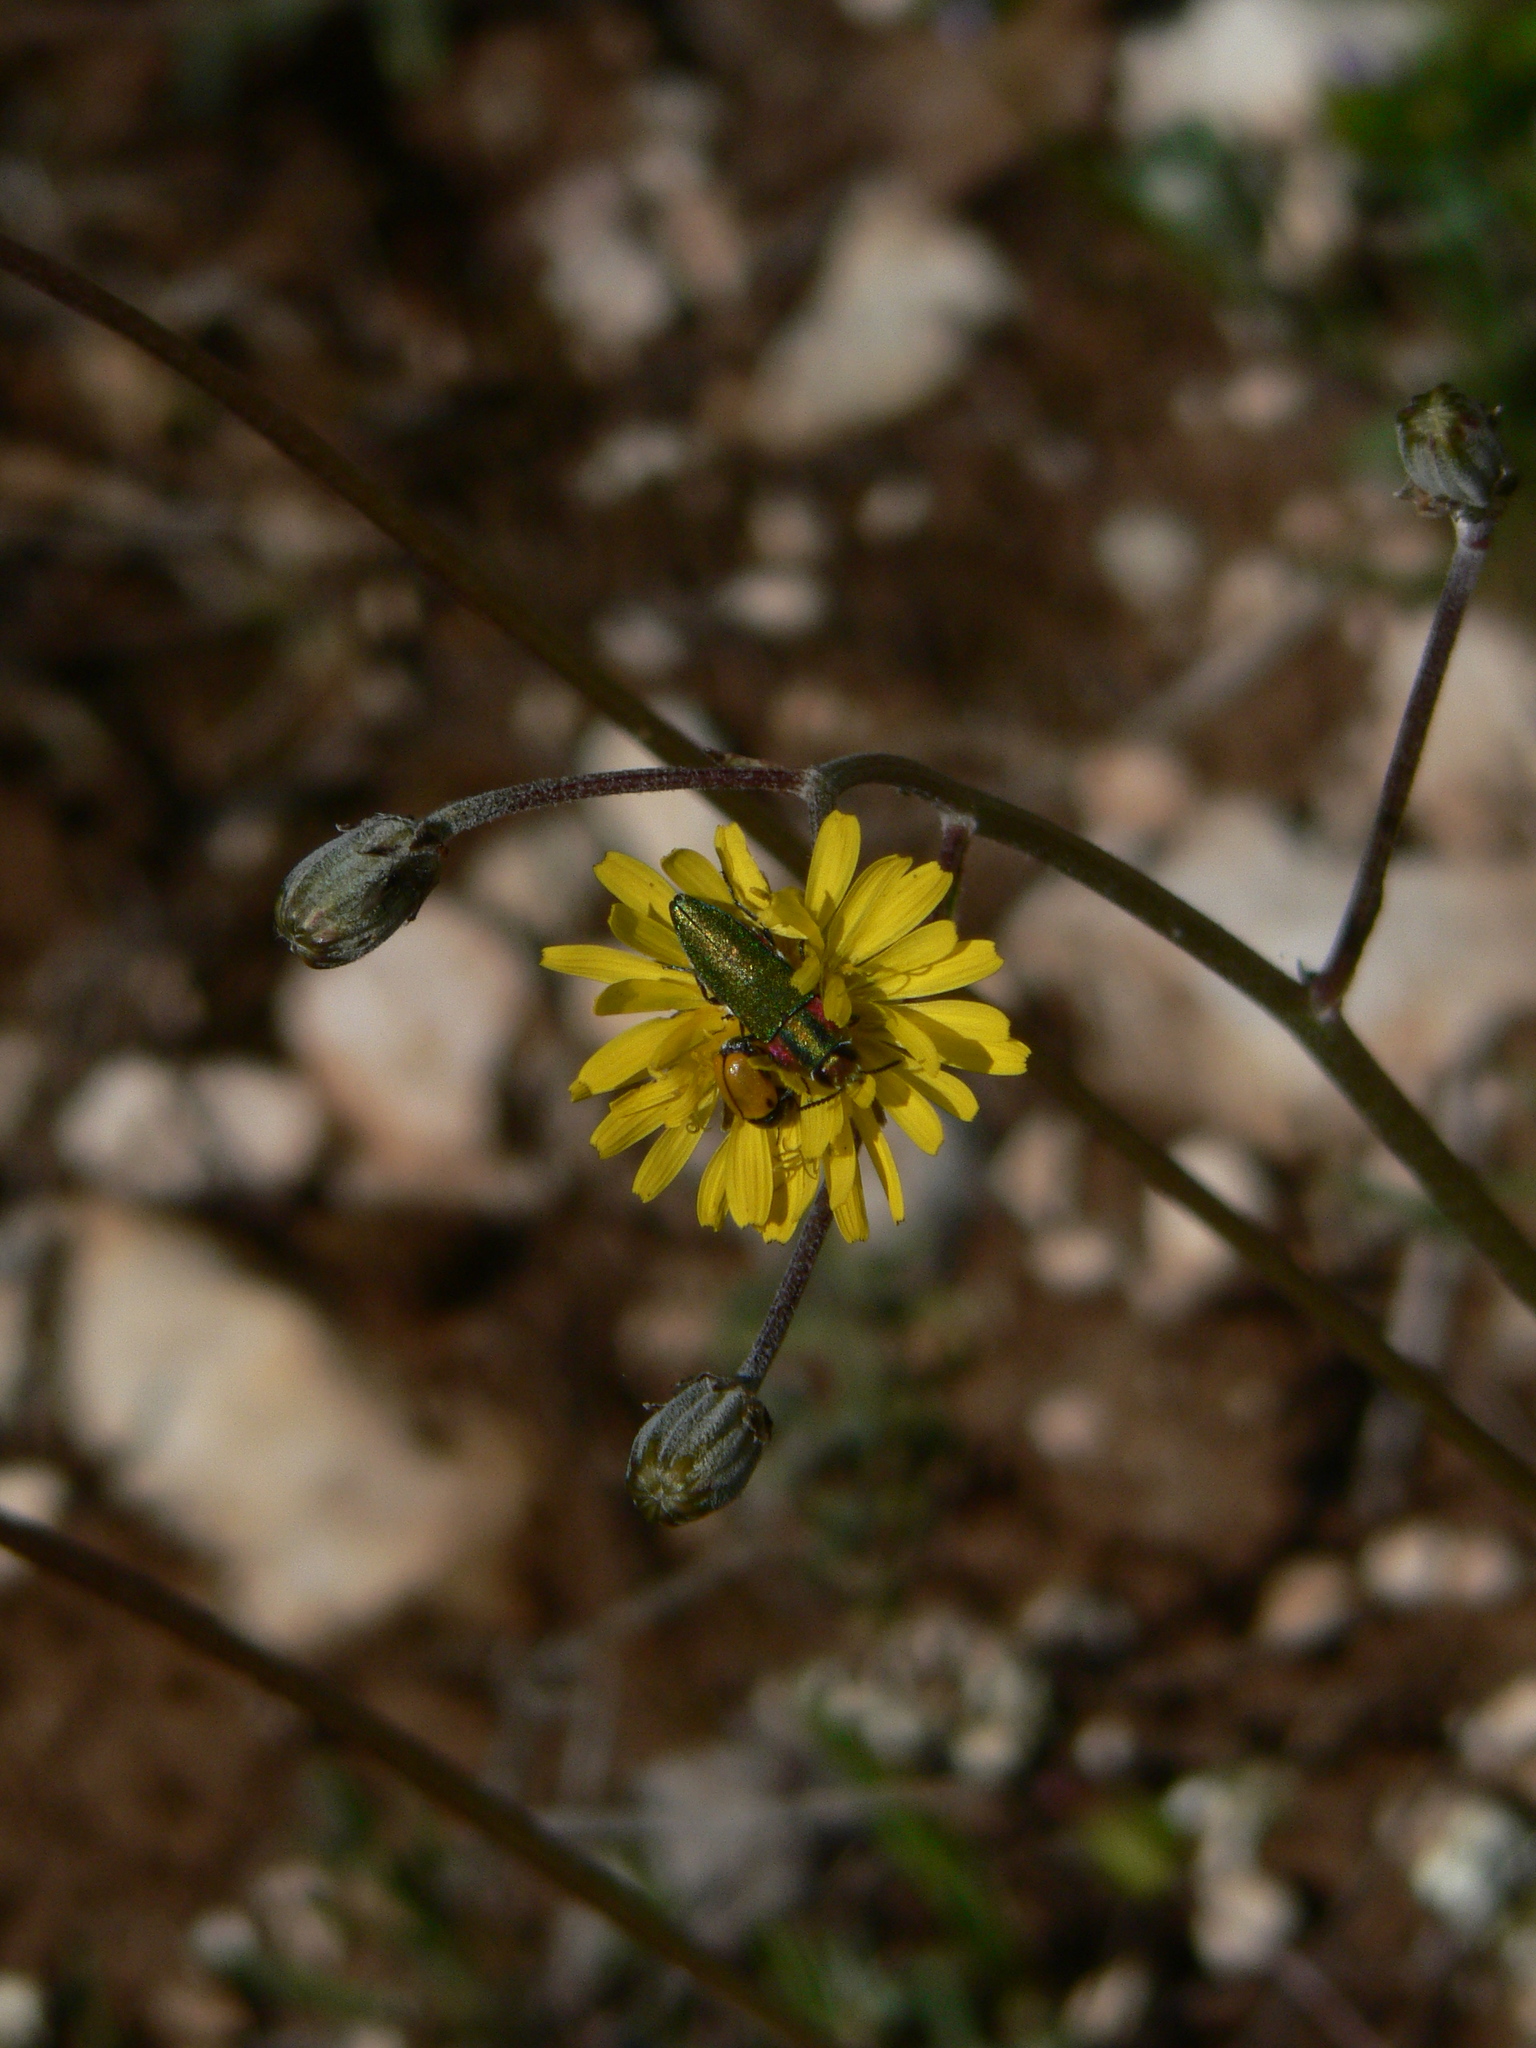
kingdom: Animalia
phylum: Arthropoda
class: Insecta
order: Coleoptera
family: Buprestidae
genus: Anthaxia
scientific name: Anthaxia hungarica
